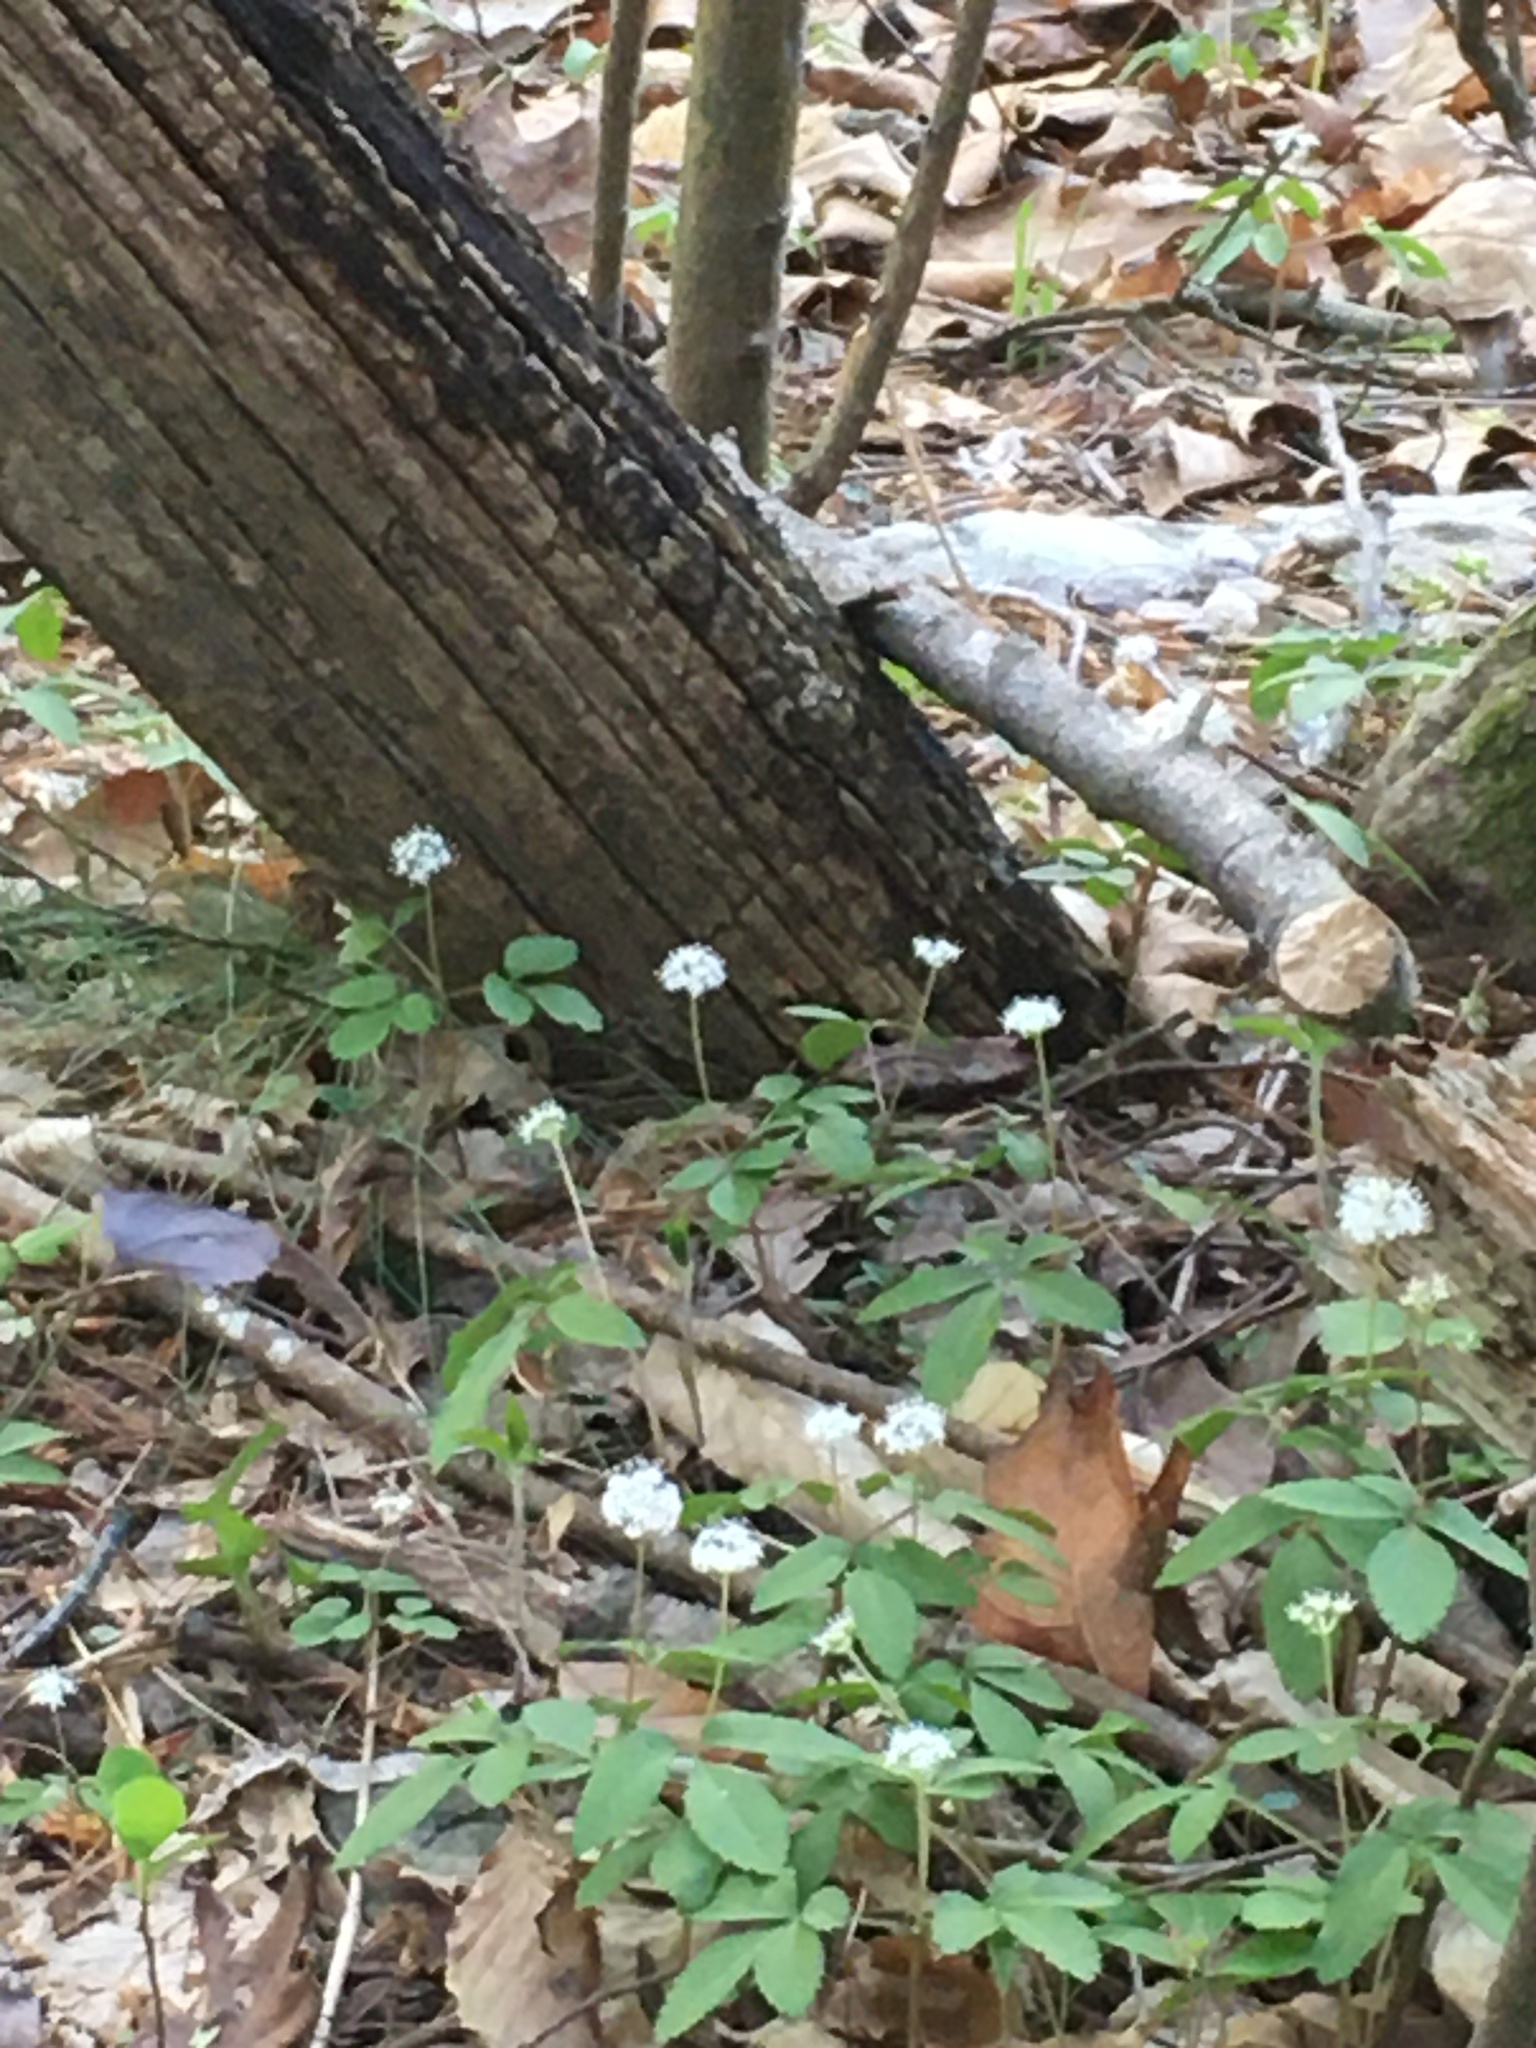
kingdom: Plantae
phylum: Tracheophyta
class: Magnoliopsida
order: Apiales
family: Araliaceae
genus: Panax
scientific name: Panax trifolius
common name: Dwarf ginseng
